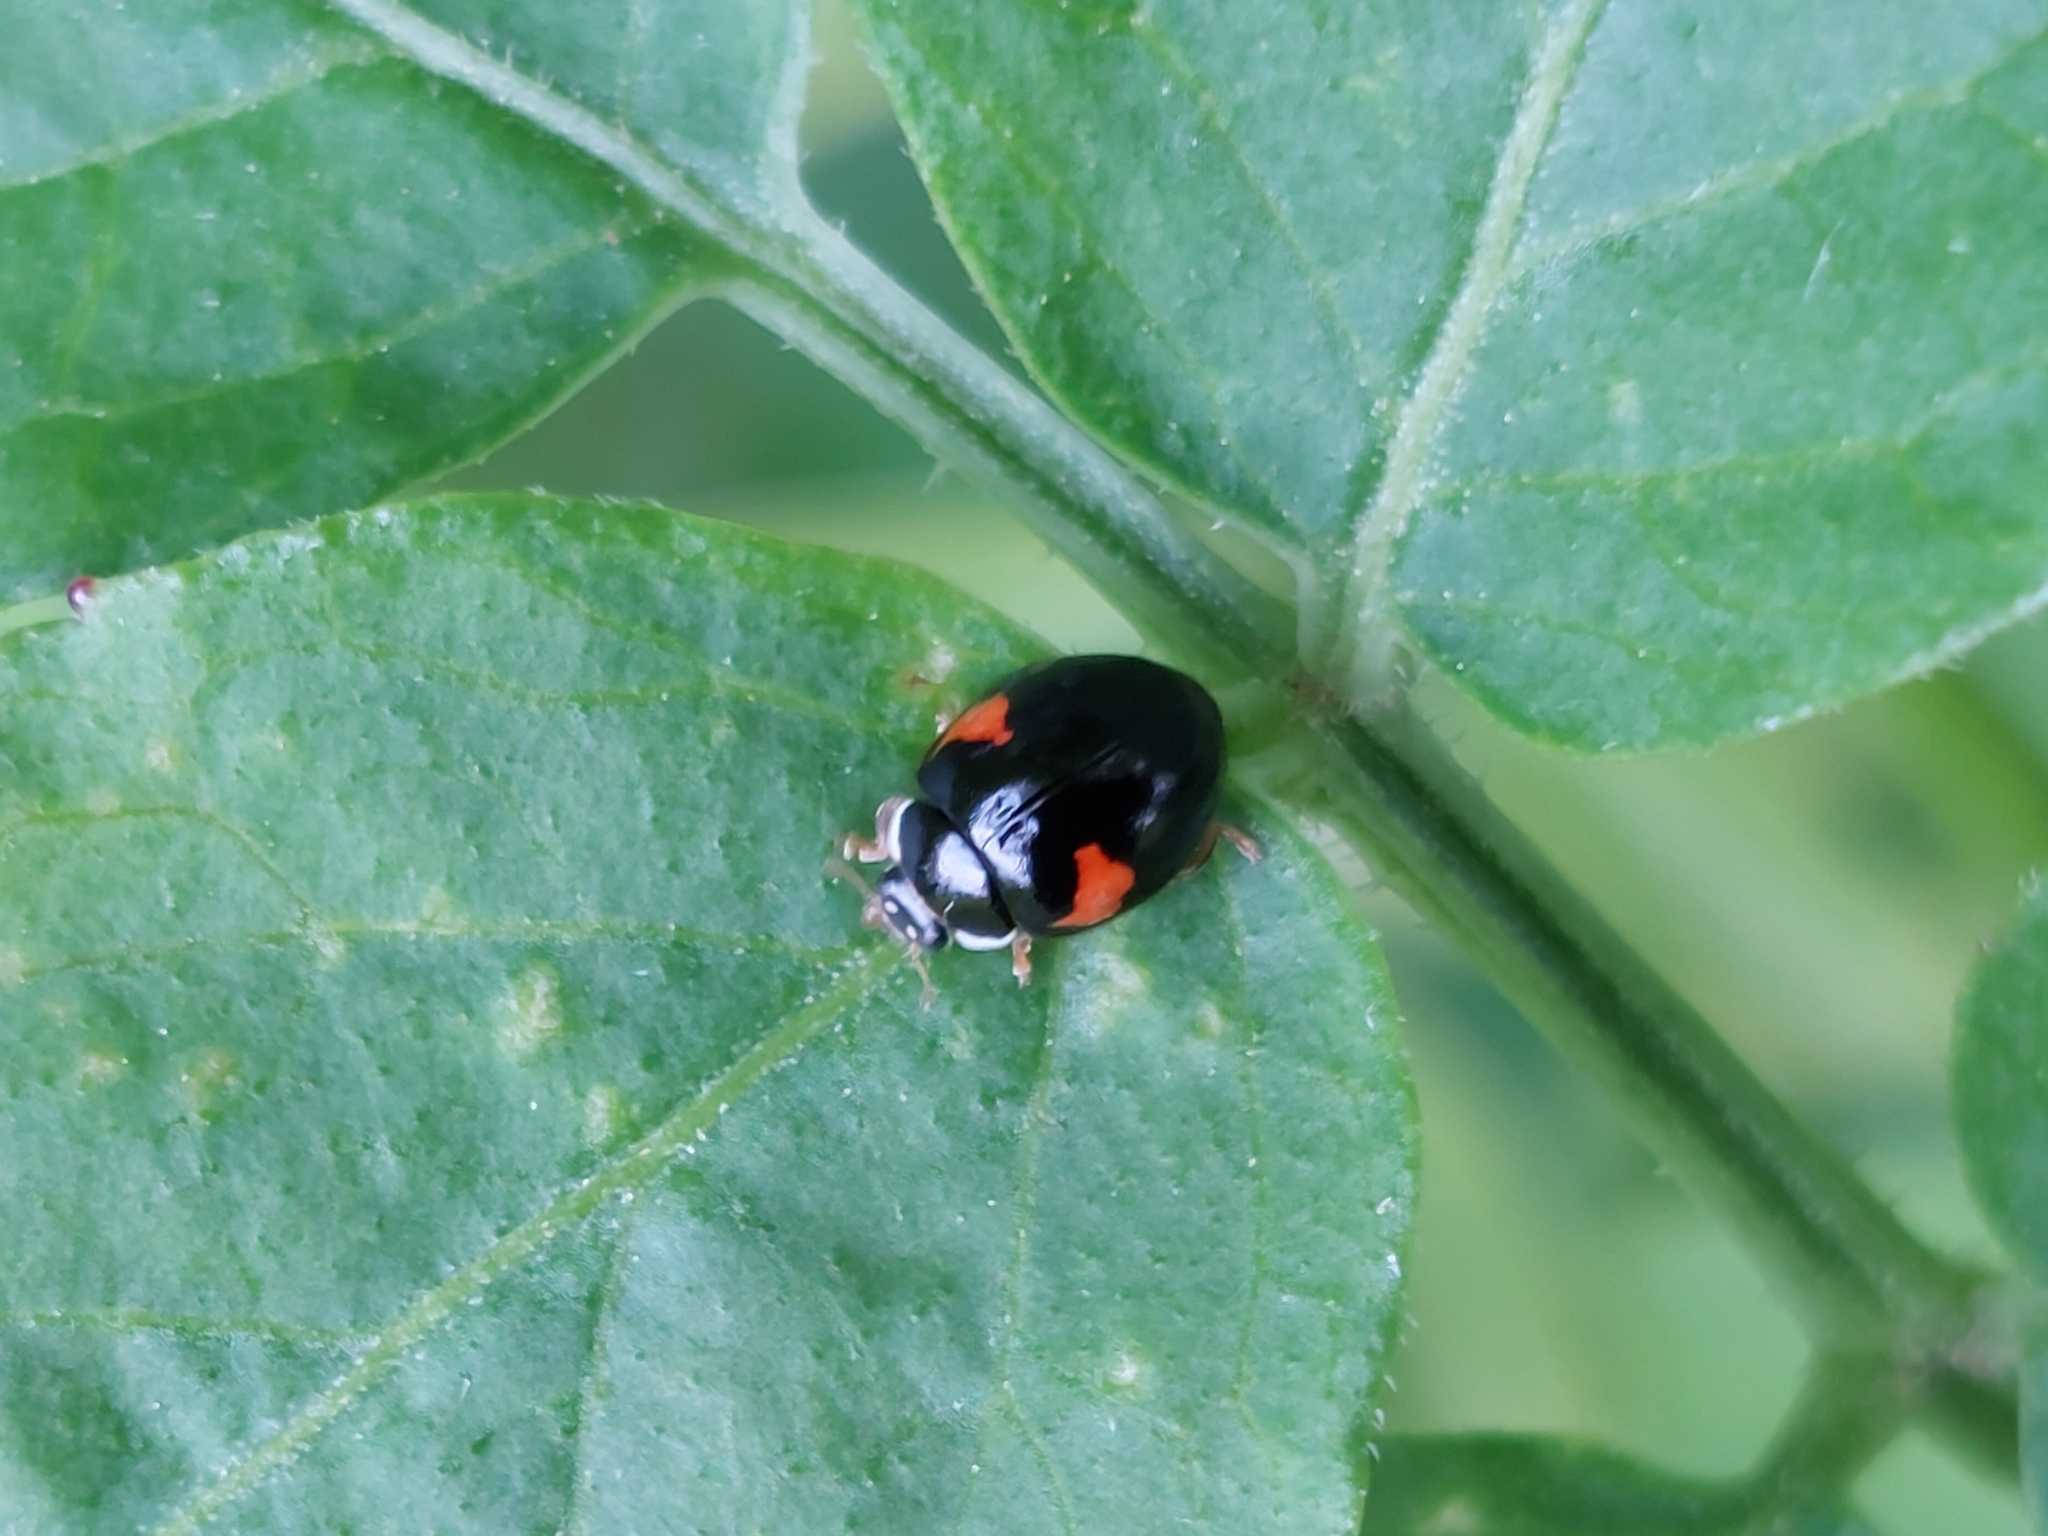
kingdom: Animalia
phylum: Arthropoda
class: Insecta
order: Coleoptera
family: Coccinellidae
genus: Adalia
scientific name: Adalia decempunctata
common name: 10-spot ladybird
